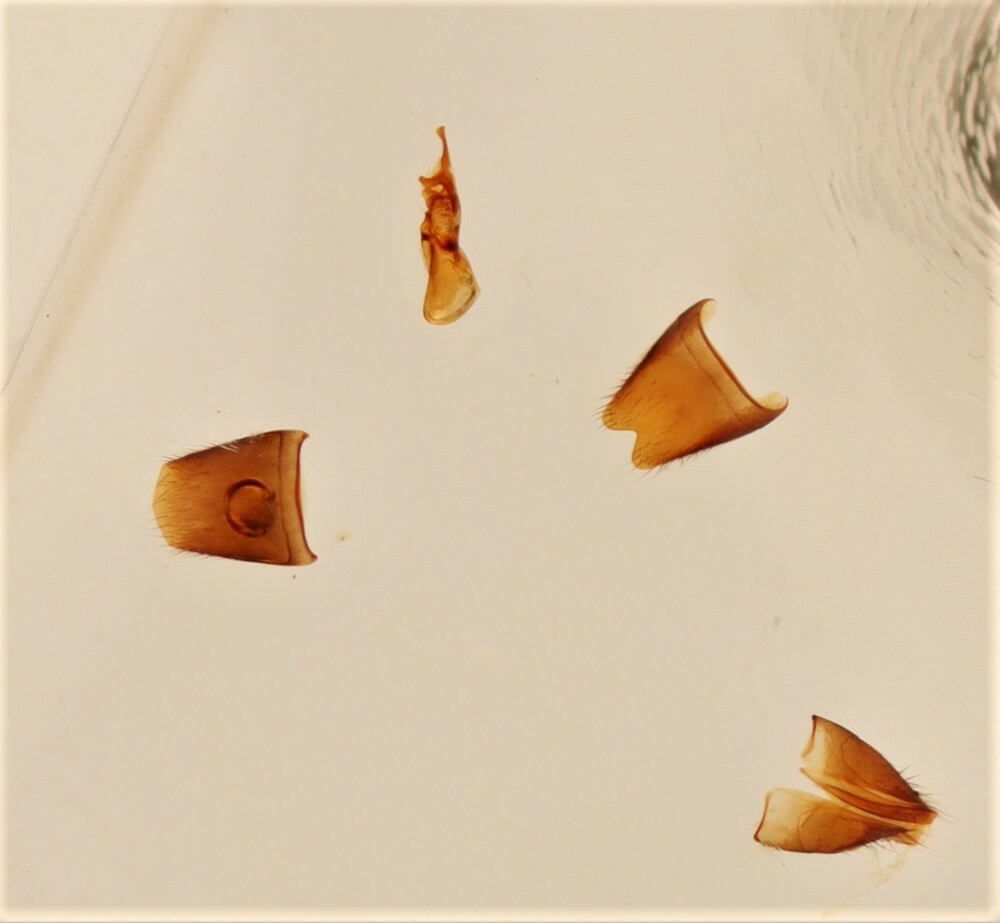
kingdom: Animalia
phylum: Arthropoda
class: Insecta
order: Coleoptera
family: Staphylinidae
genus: Scopaeus
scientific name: Scopaeus minutus
